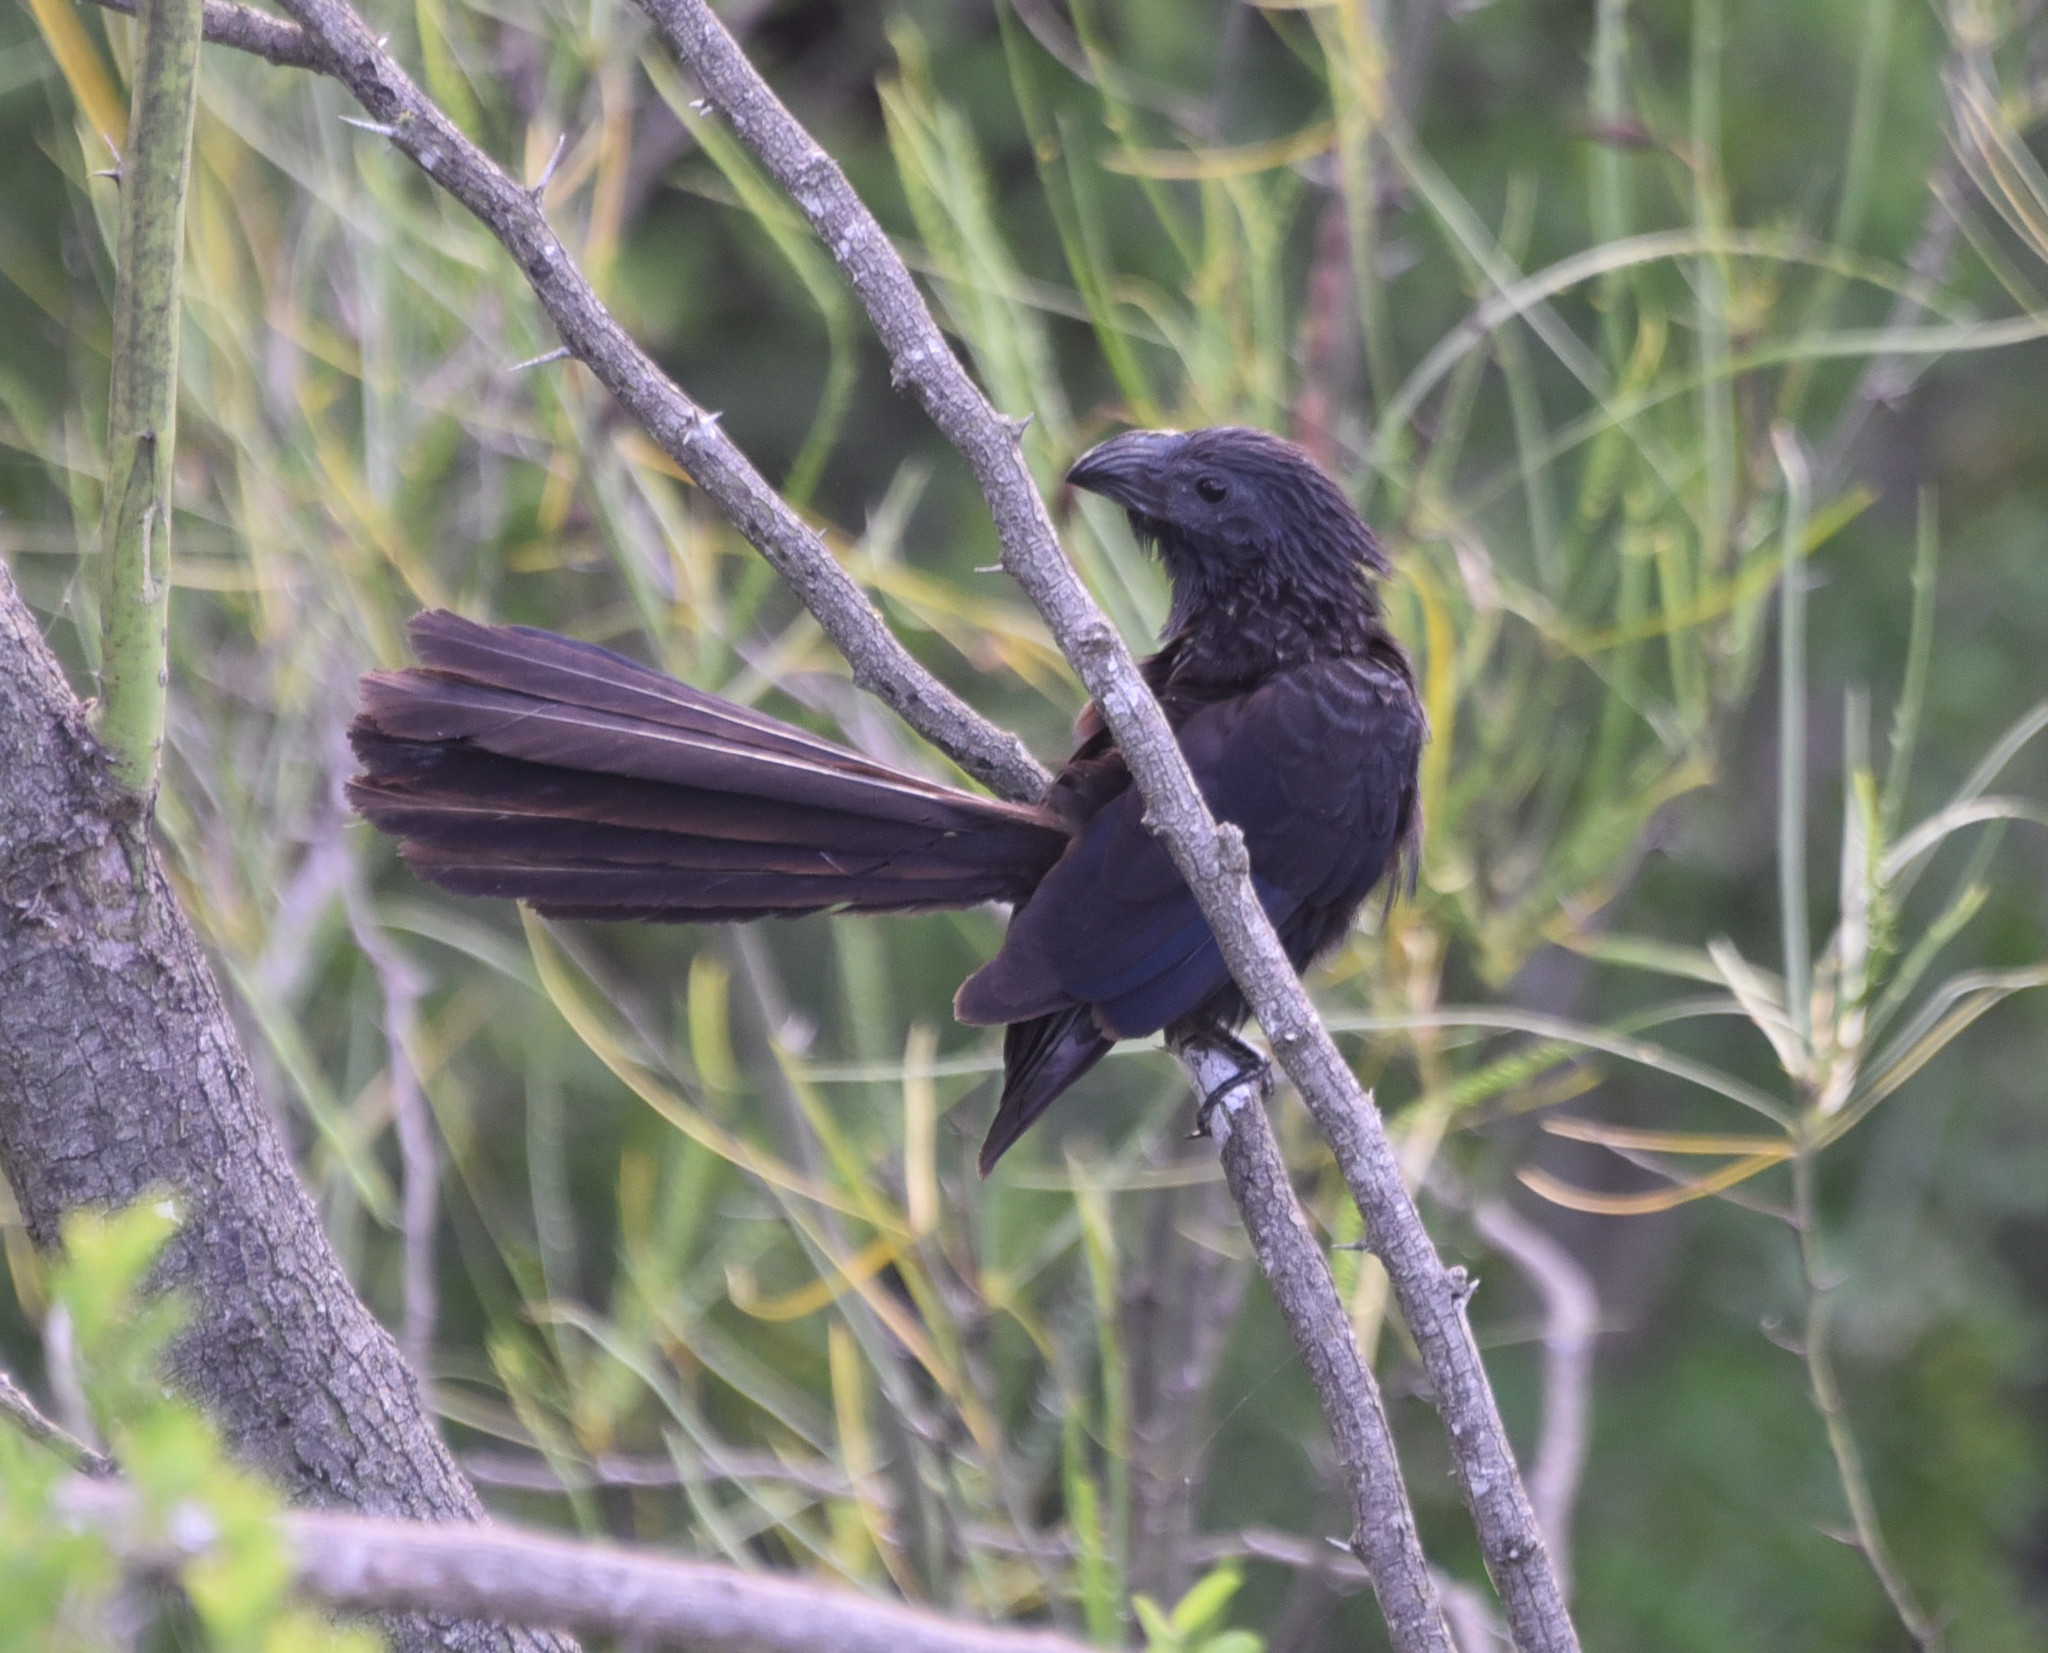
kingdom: Animalia
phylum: Chordata
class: Aves
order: Cuculiformes
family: Cuculidae
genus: Crotophaga
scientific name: Crotophaga sulcirostris
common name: Groove-billed ani
